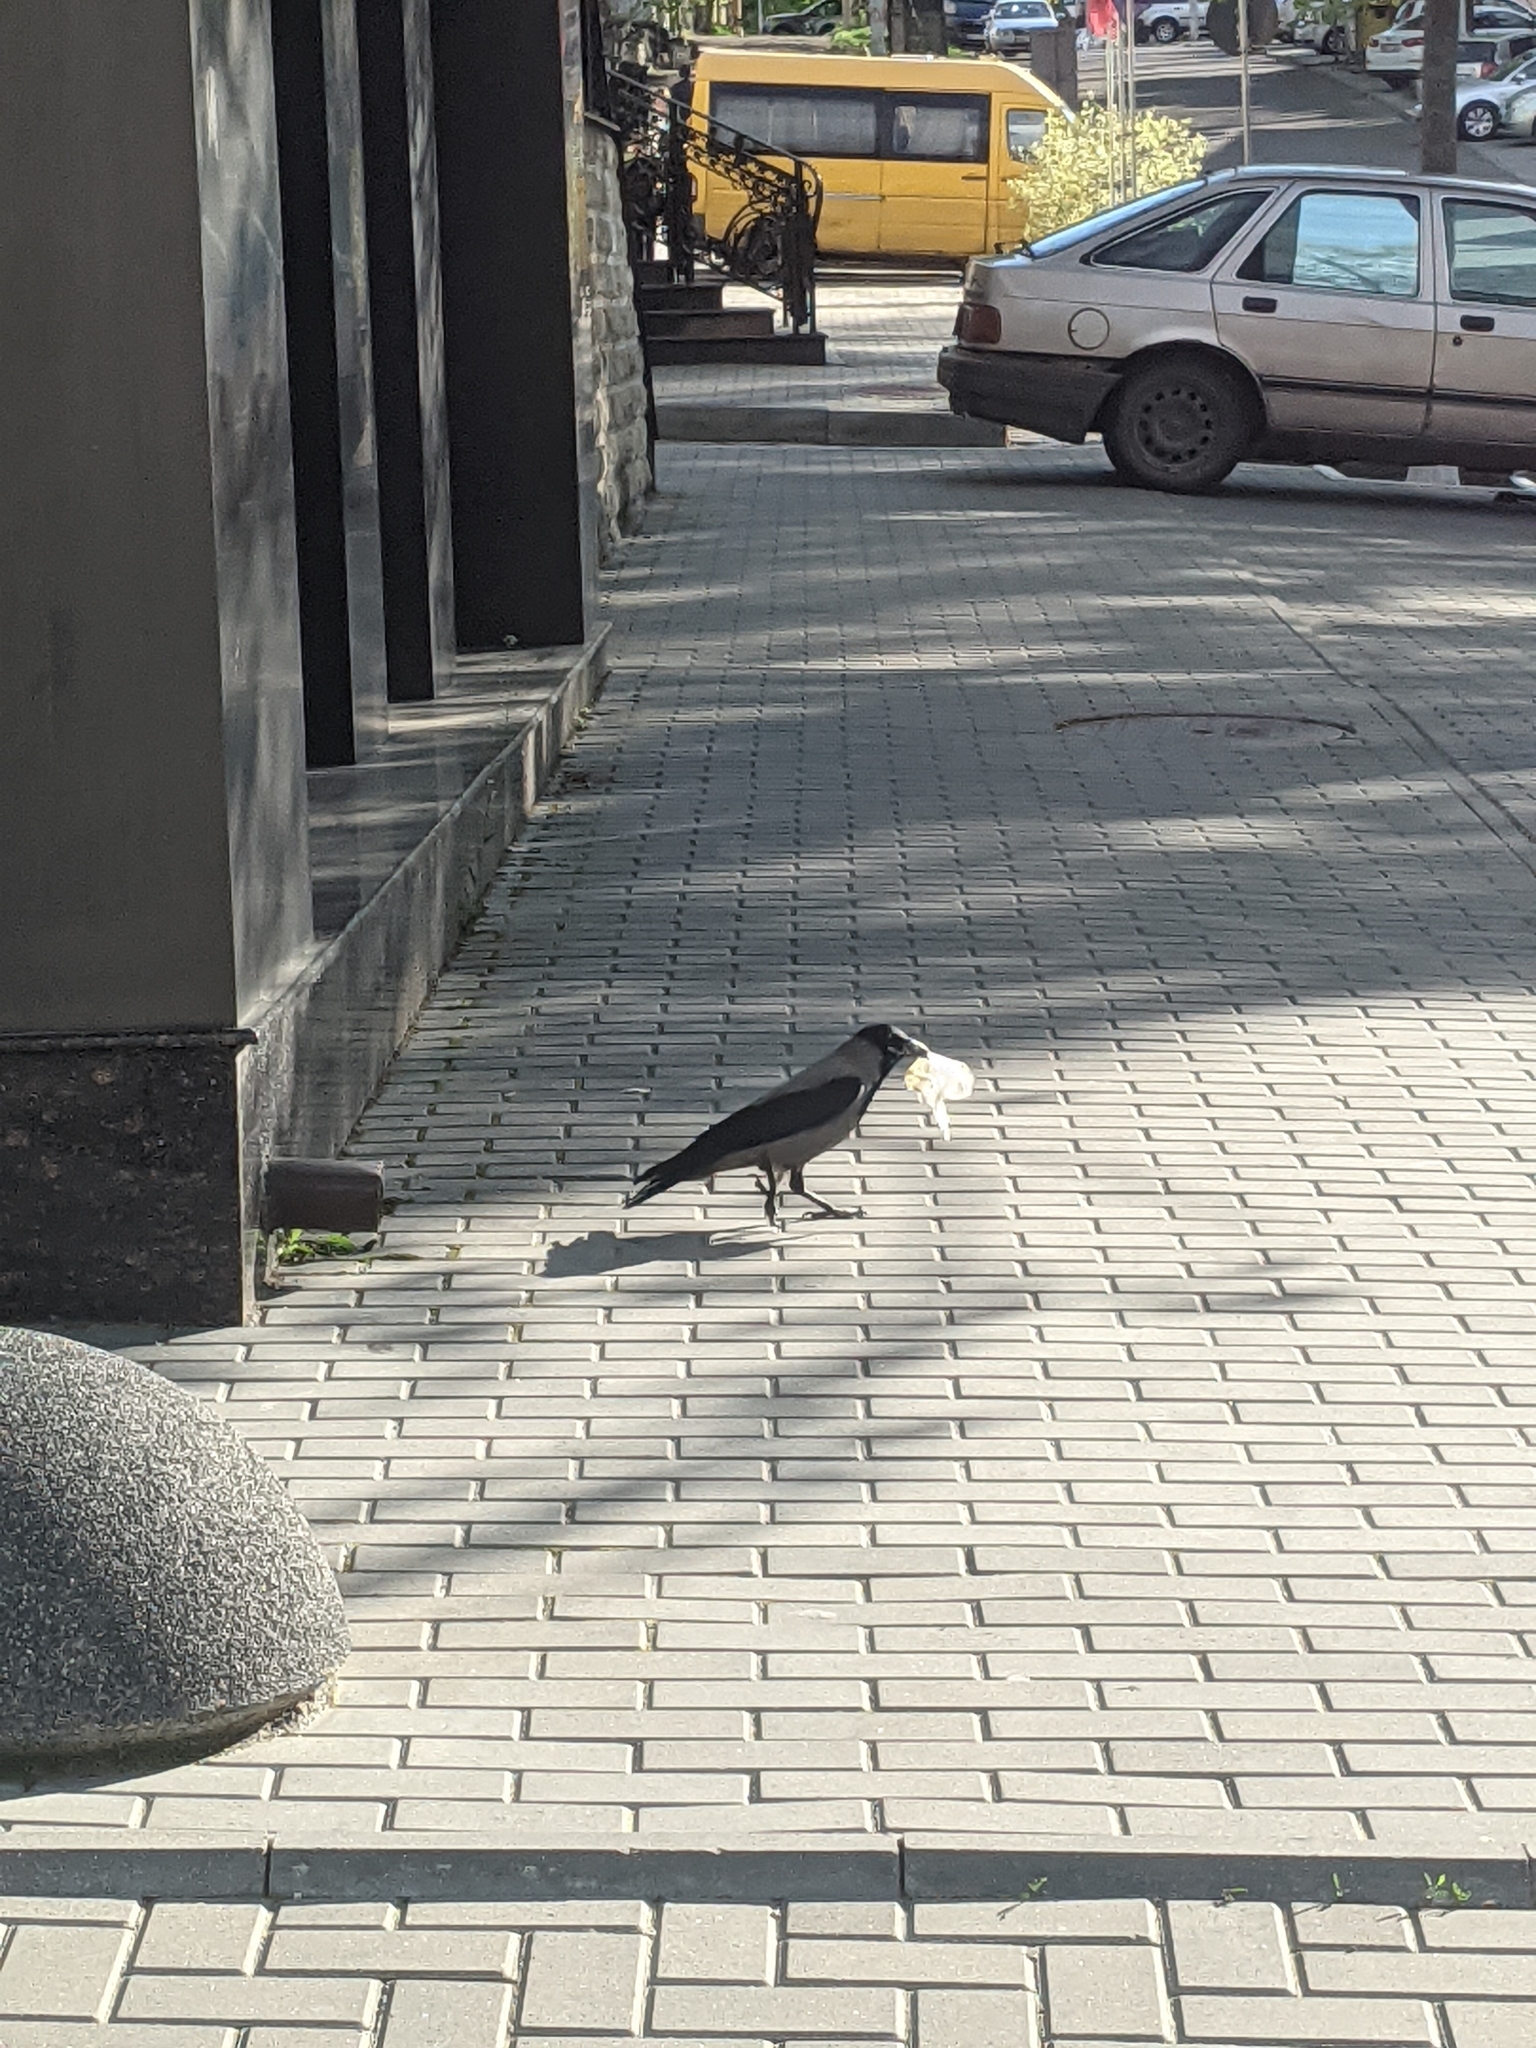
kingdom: Animalia
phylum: Chordata
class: Aves
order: Passeriformes
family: Corvidae
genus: Corvus
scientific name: Corvus cornix
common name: Hooded crow
